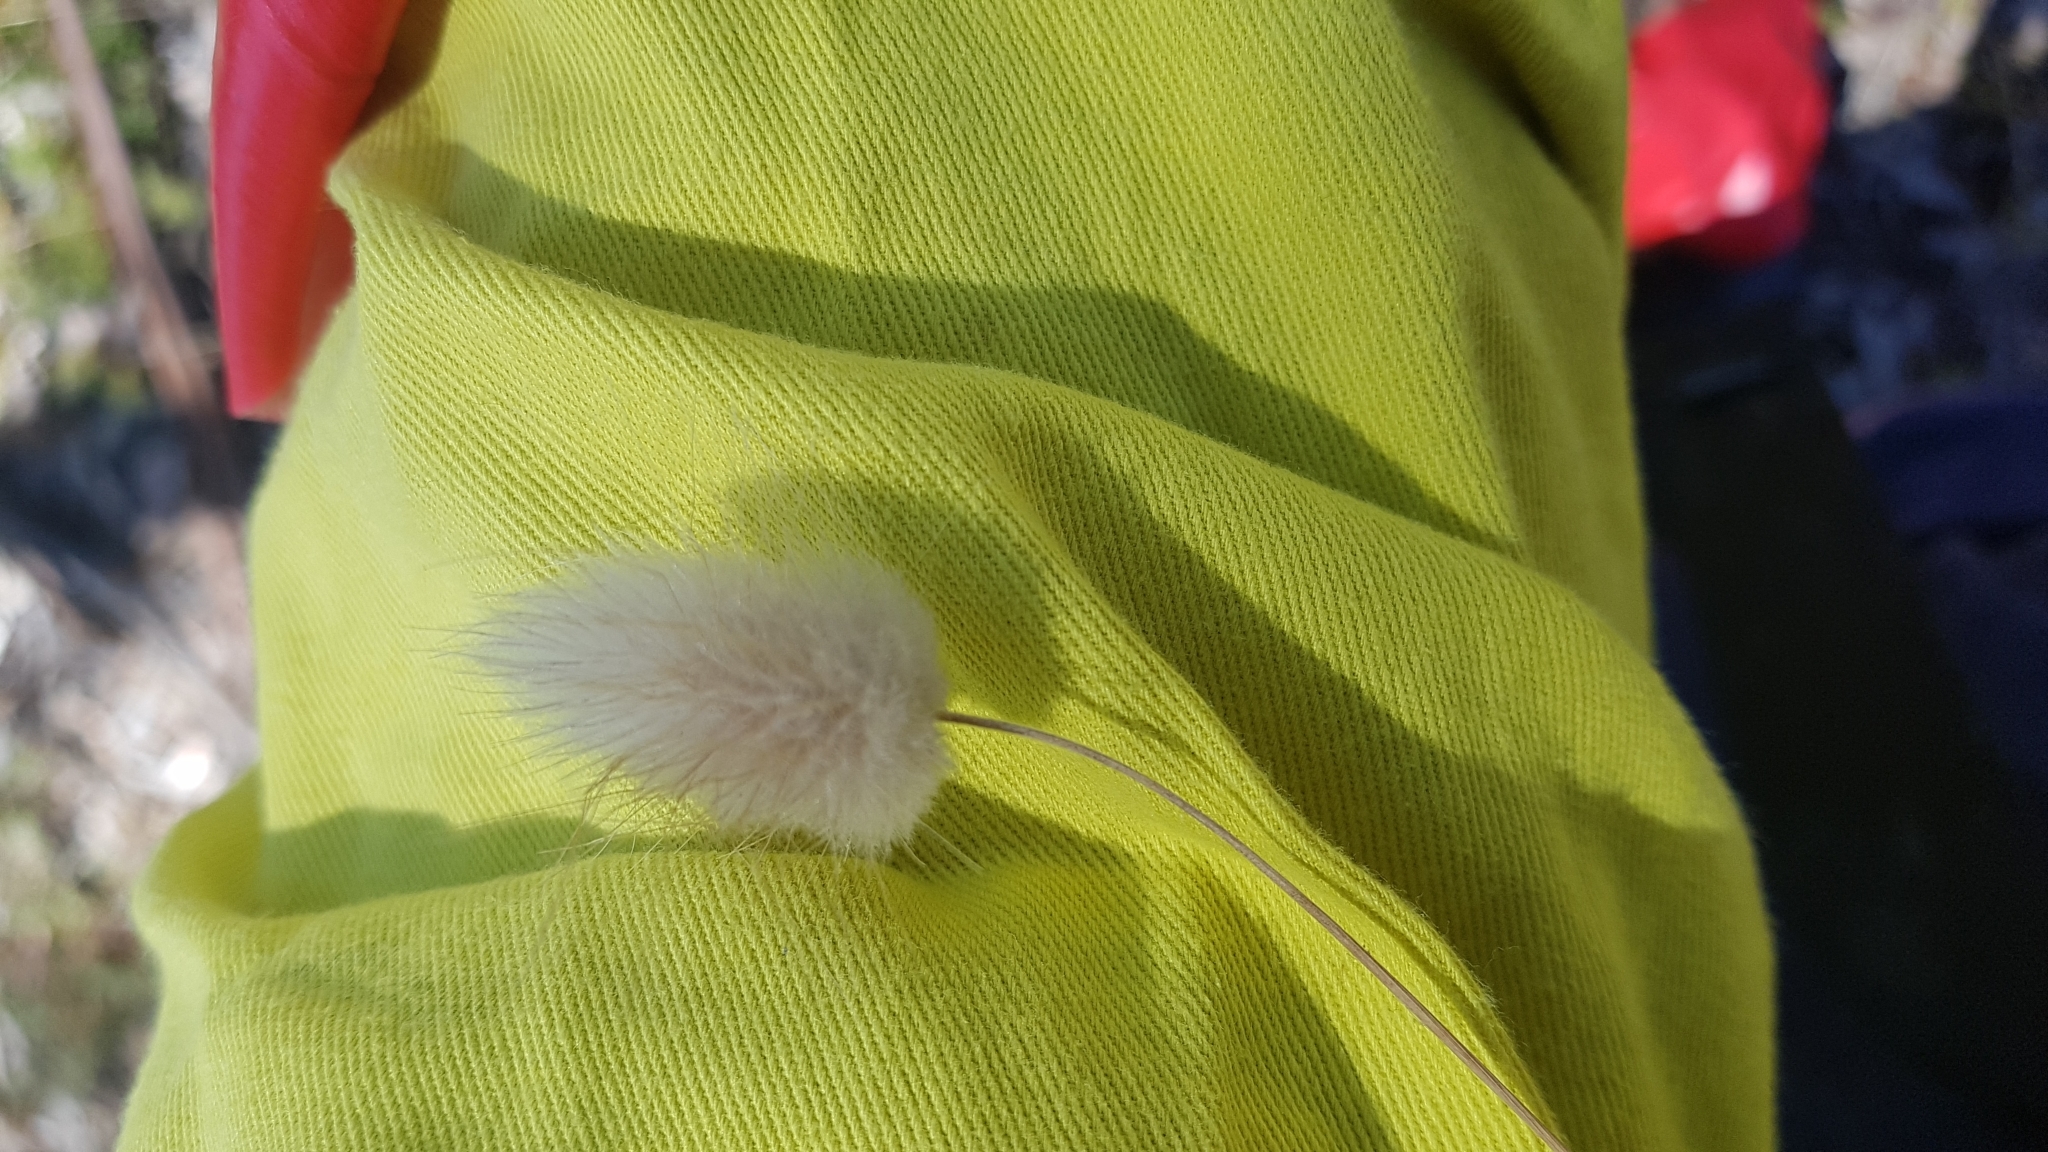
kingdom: Plantae
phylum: Tracheophyta
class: Liliopsida
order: Poales
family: Poaceae
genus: Lagurus
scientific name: Lagurus ovatus
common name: Hare's-tail
